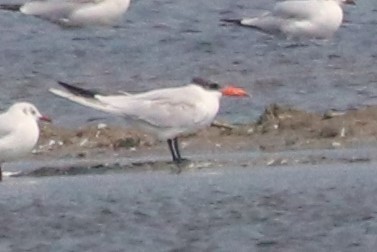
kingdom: Animalia
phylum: Chordata
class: Aves
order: Charadriiformes
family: Laridae
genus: Hydroprogne
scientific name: Hydroprogne caspia
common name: Caspian tern
